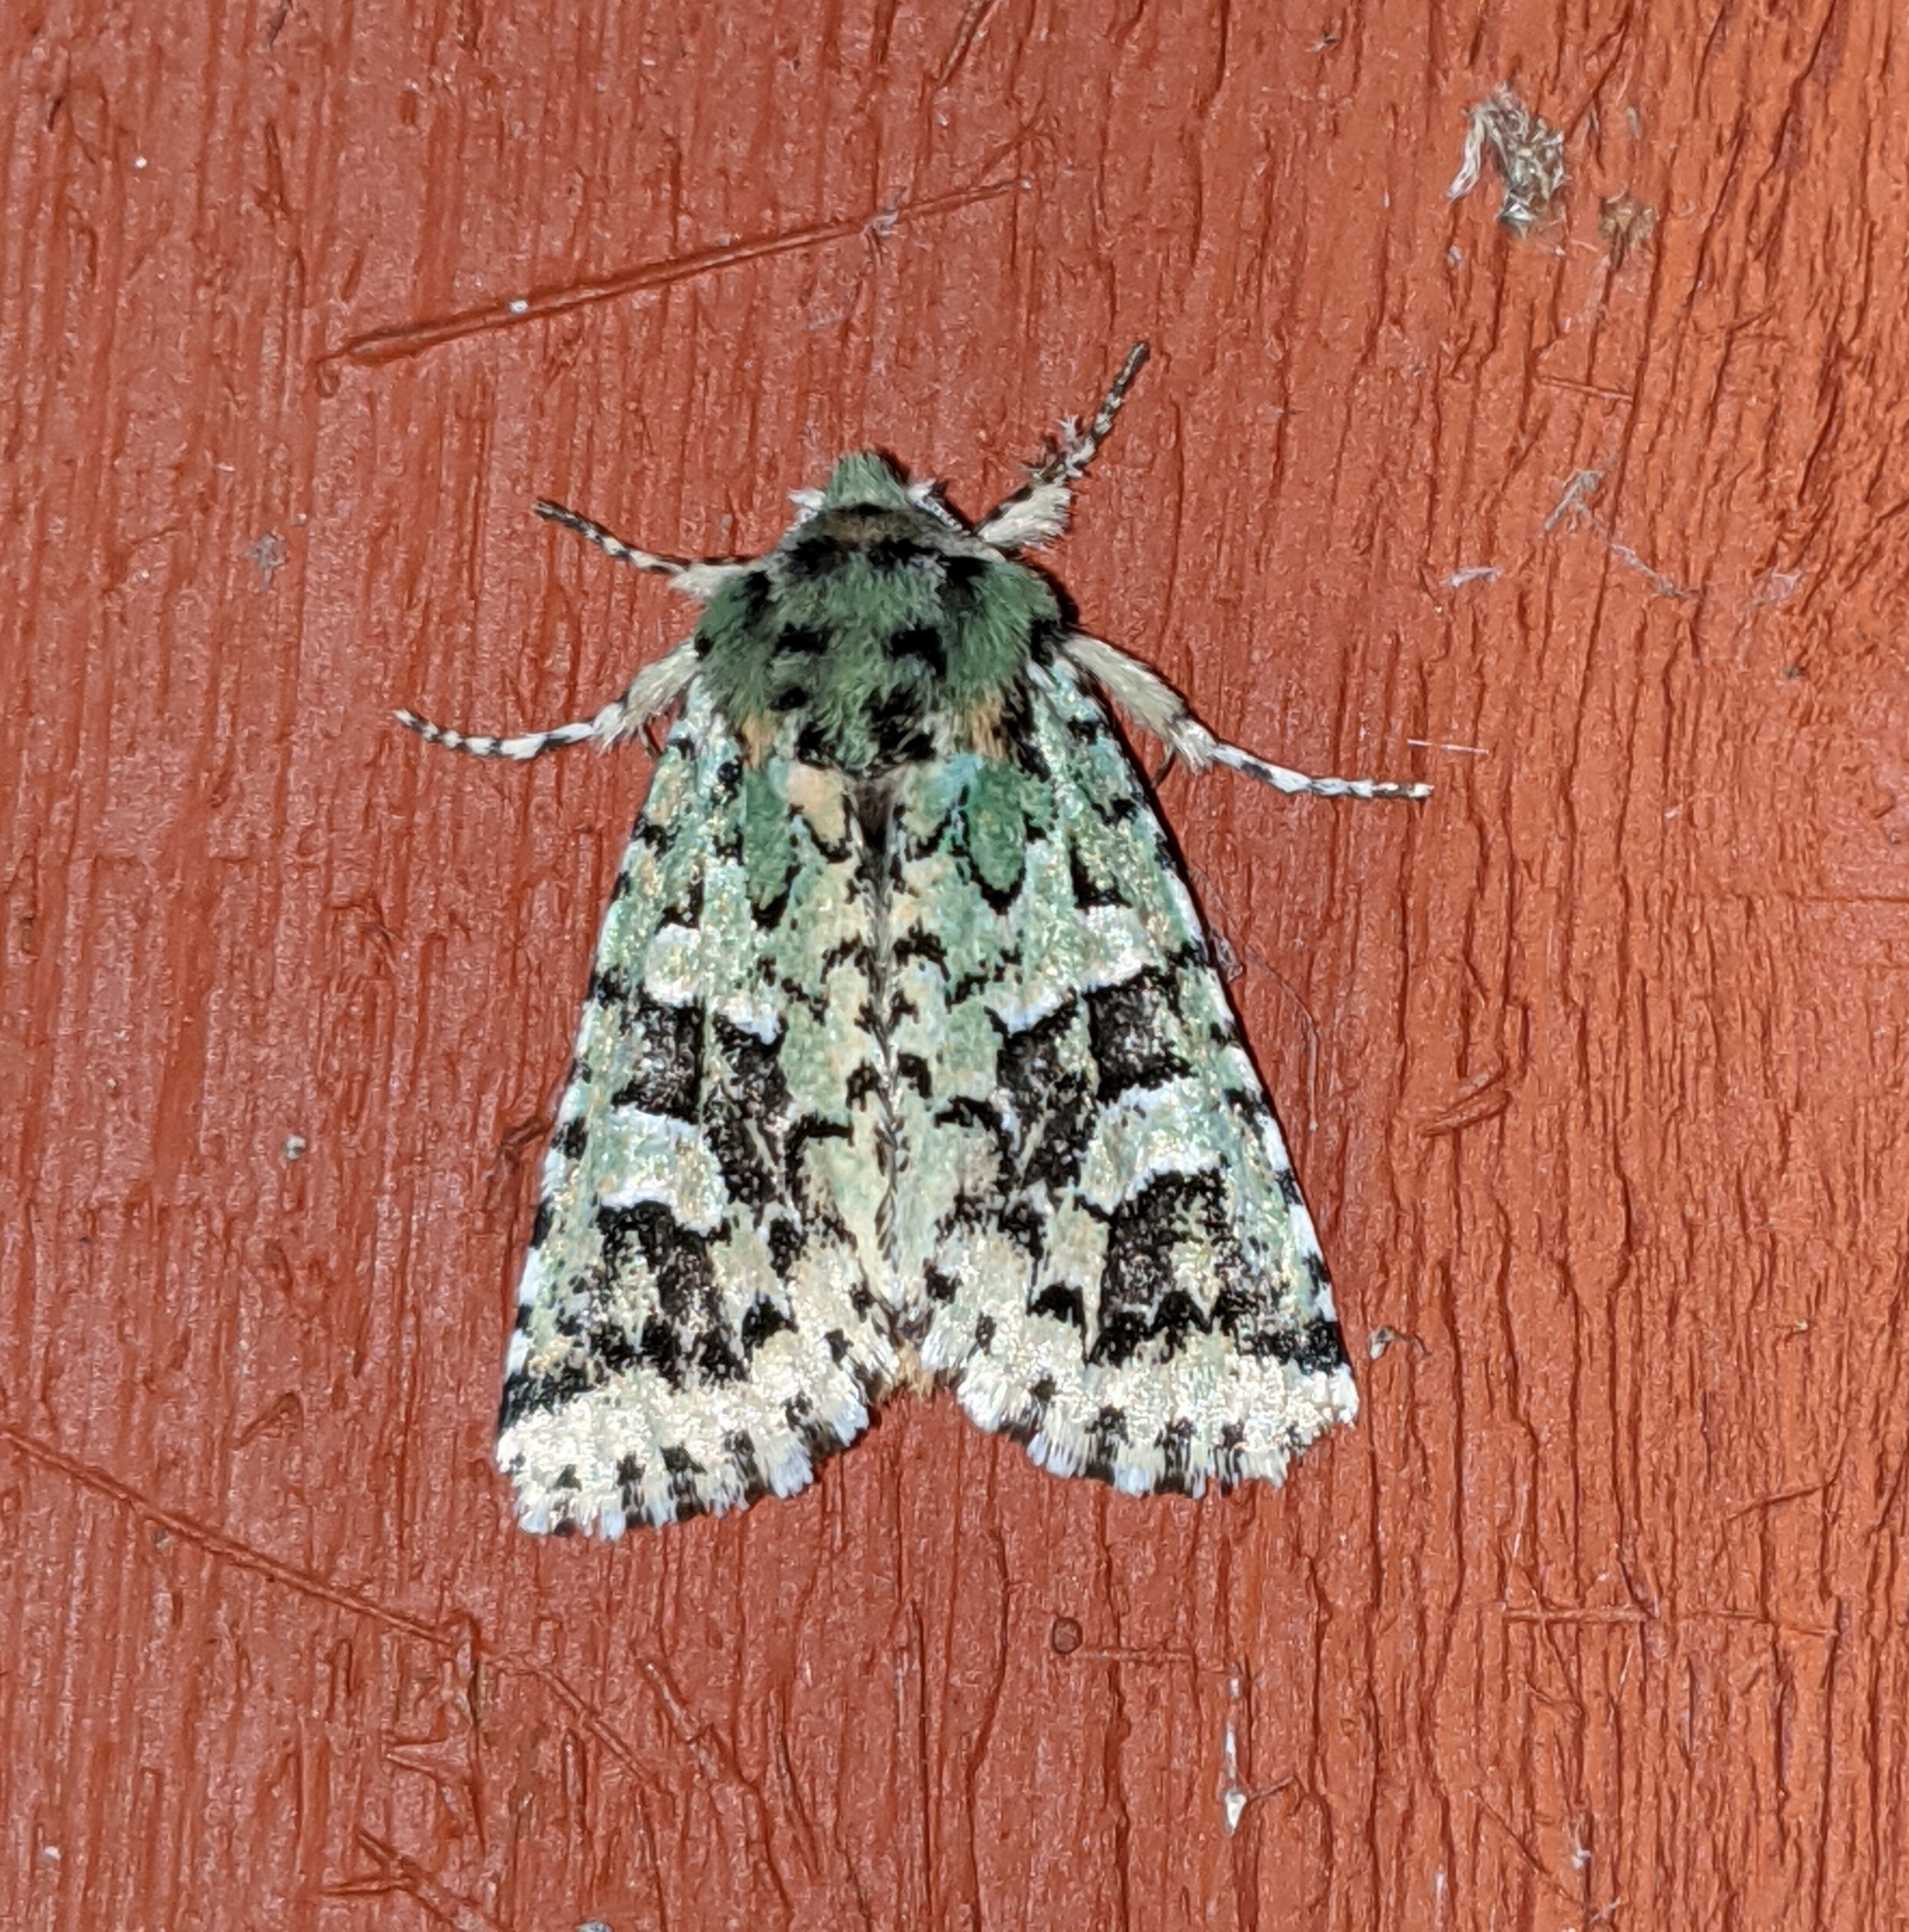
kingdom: Animalia
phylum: Arthropoda
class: Insecta
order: Lepidoptera
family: Noctuidae
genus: Feralia
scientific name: Feralia comstocki
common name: Comstock's sallow
